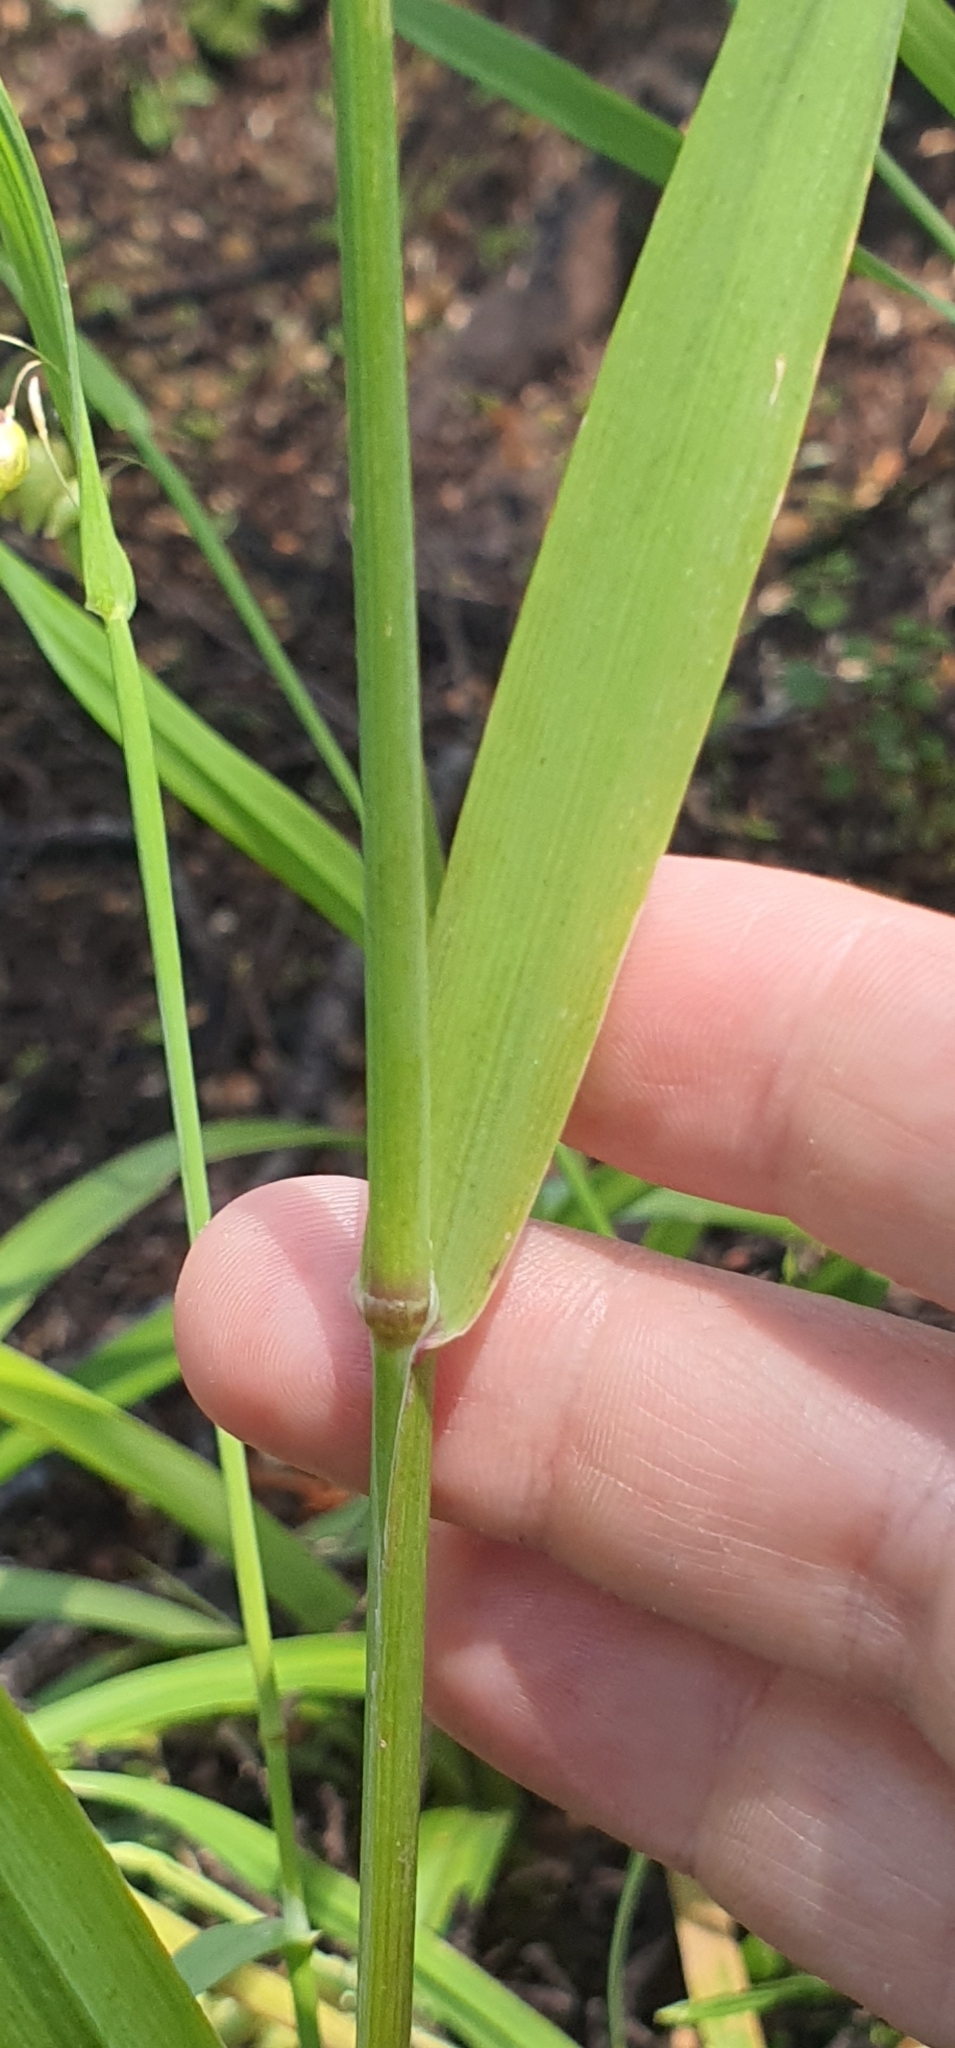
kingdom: Plantae
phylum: Tracheophyta
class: Liliopsida
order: Poales
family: Poaceae
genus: Briza
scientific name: Briza maxima
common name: Big quakinggrass
